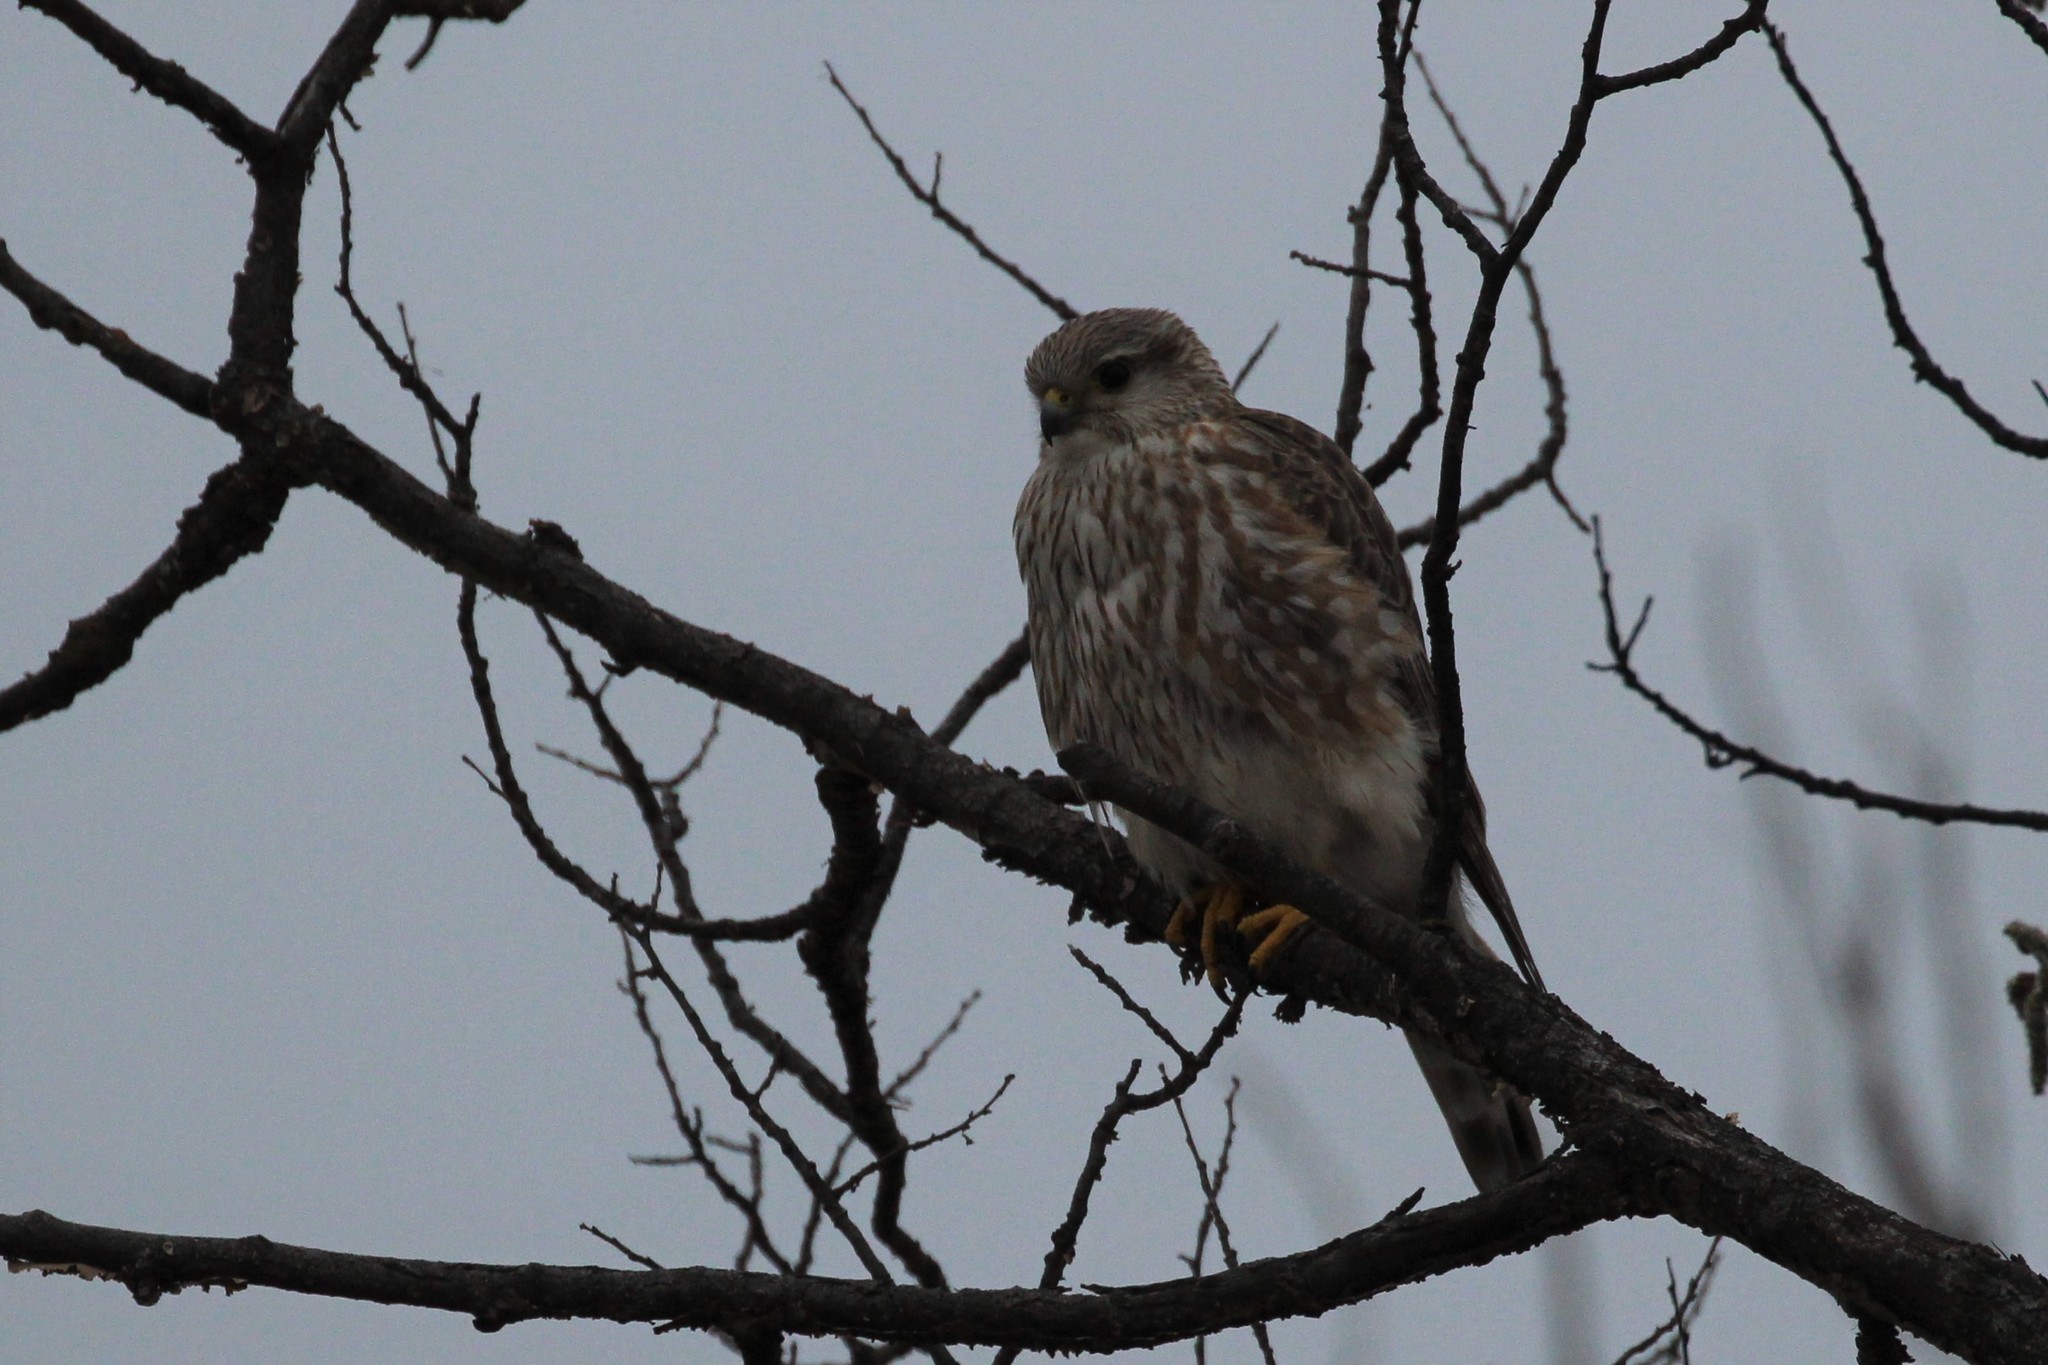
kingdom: Animalia
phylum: Chordata
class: Aves
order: Falconiformes
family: Falconidae
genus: Falco
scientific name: Falco columbarius
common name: Merlin
